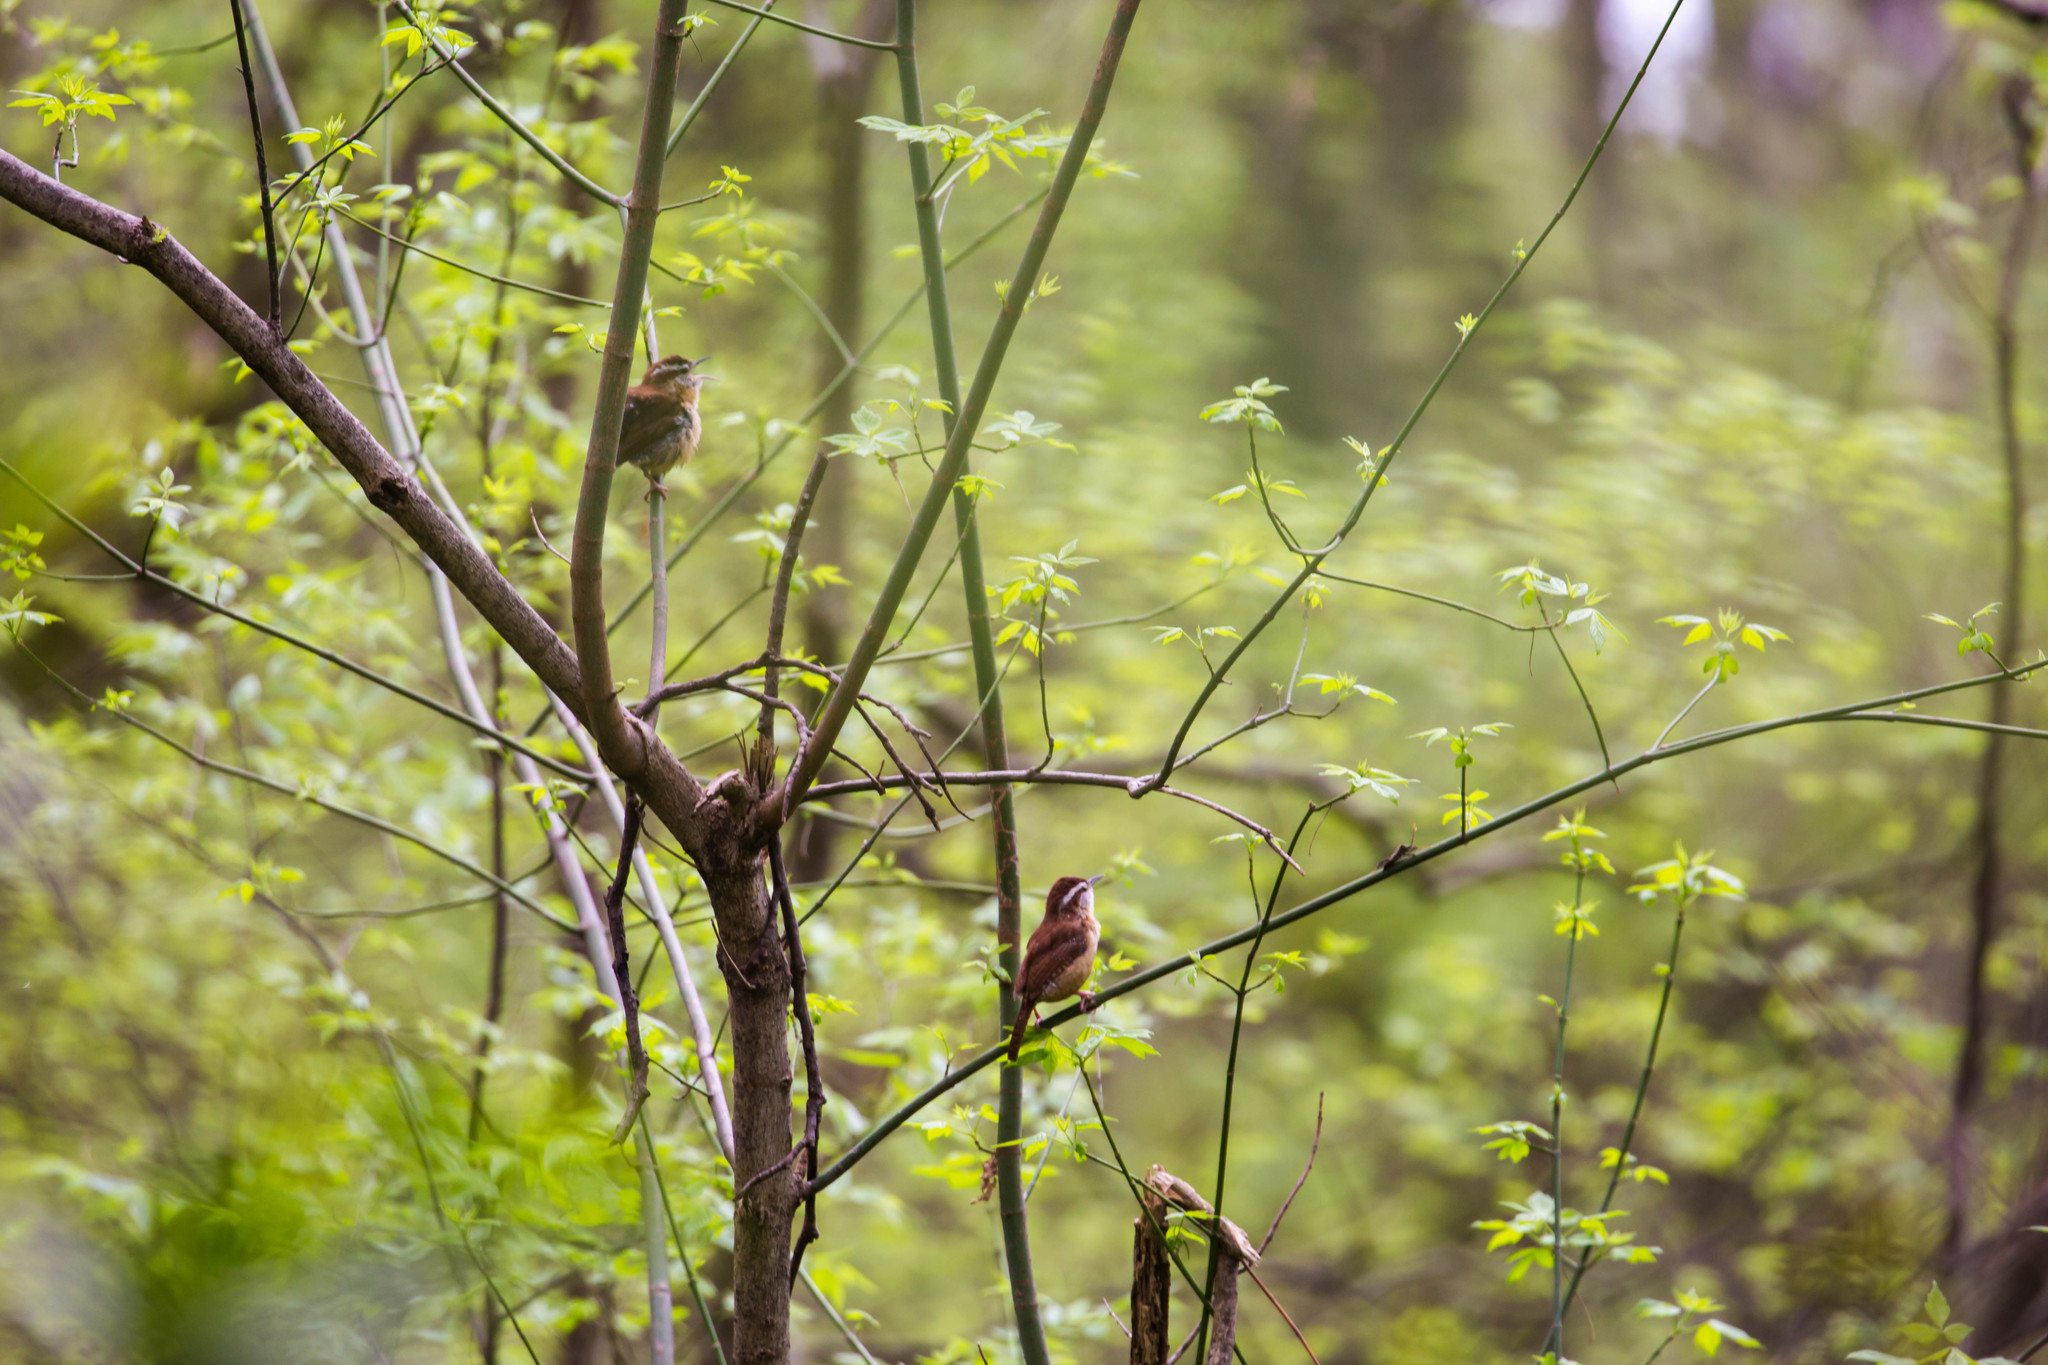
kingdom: Animalia
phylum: Chordata
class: Aves
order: Passeriformes
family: Troglodytidae
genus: Thryothorus
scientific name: Thryothorus ludovicianus
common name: Carolina wren
